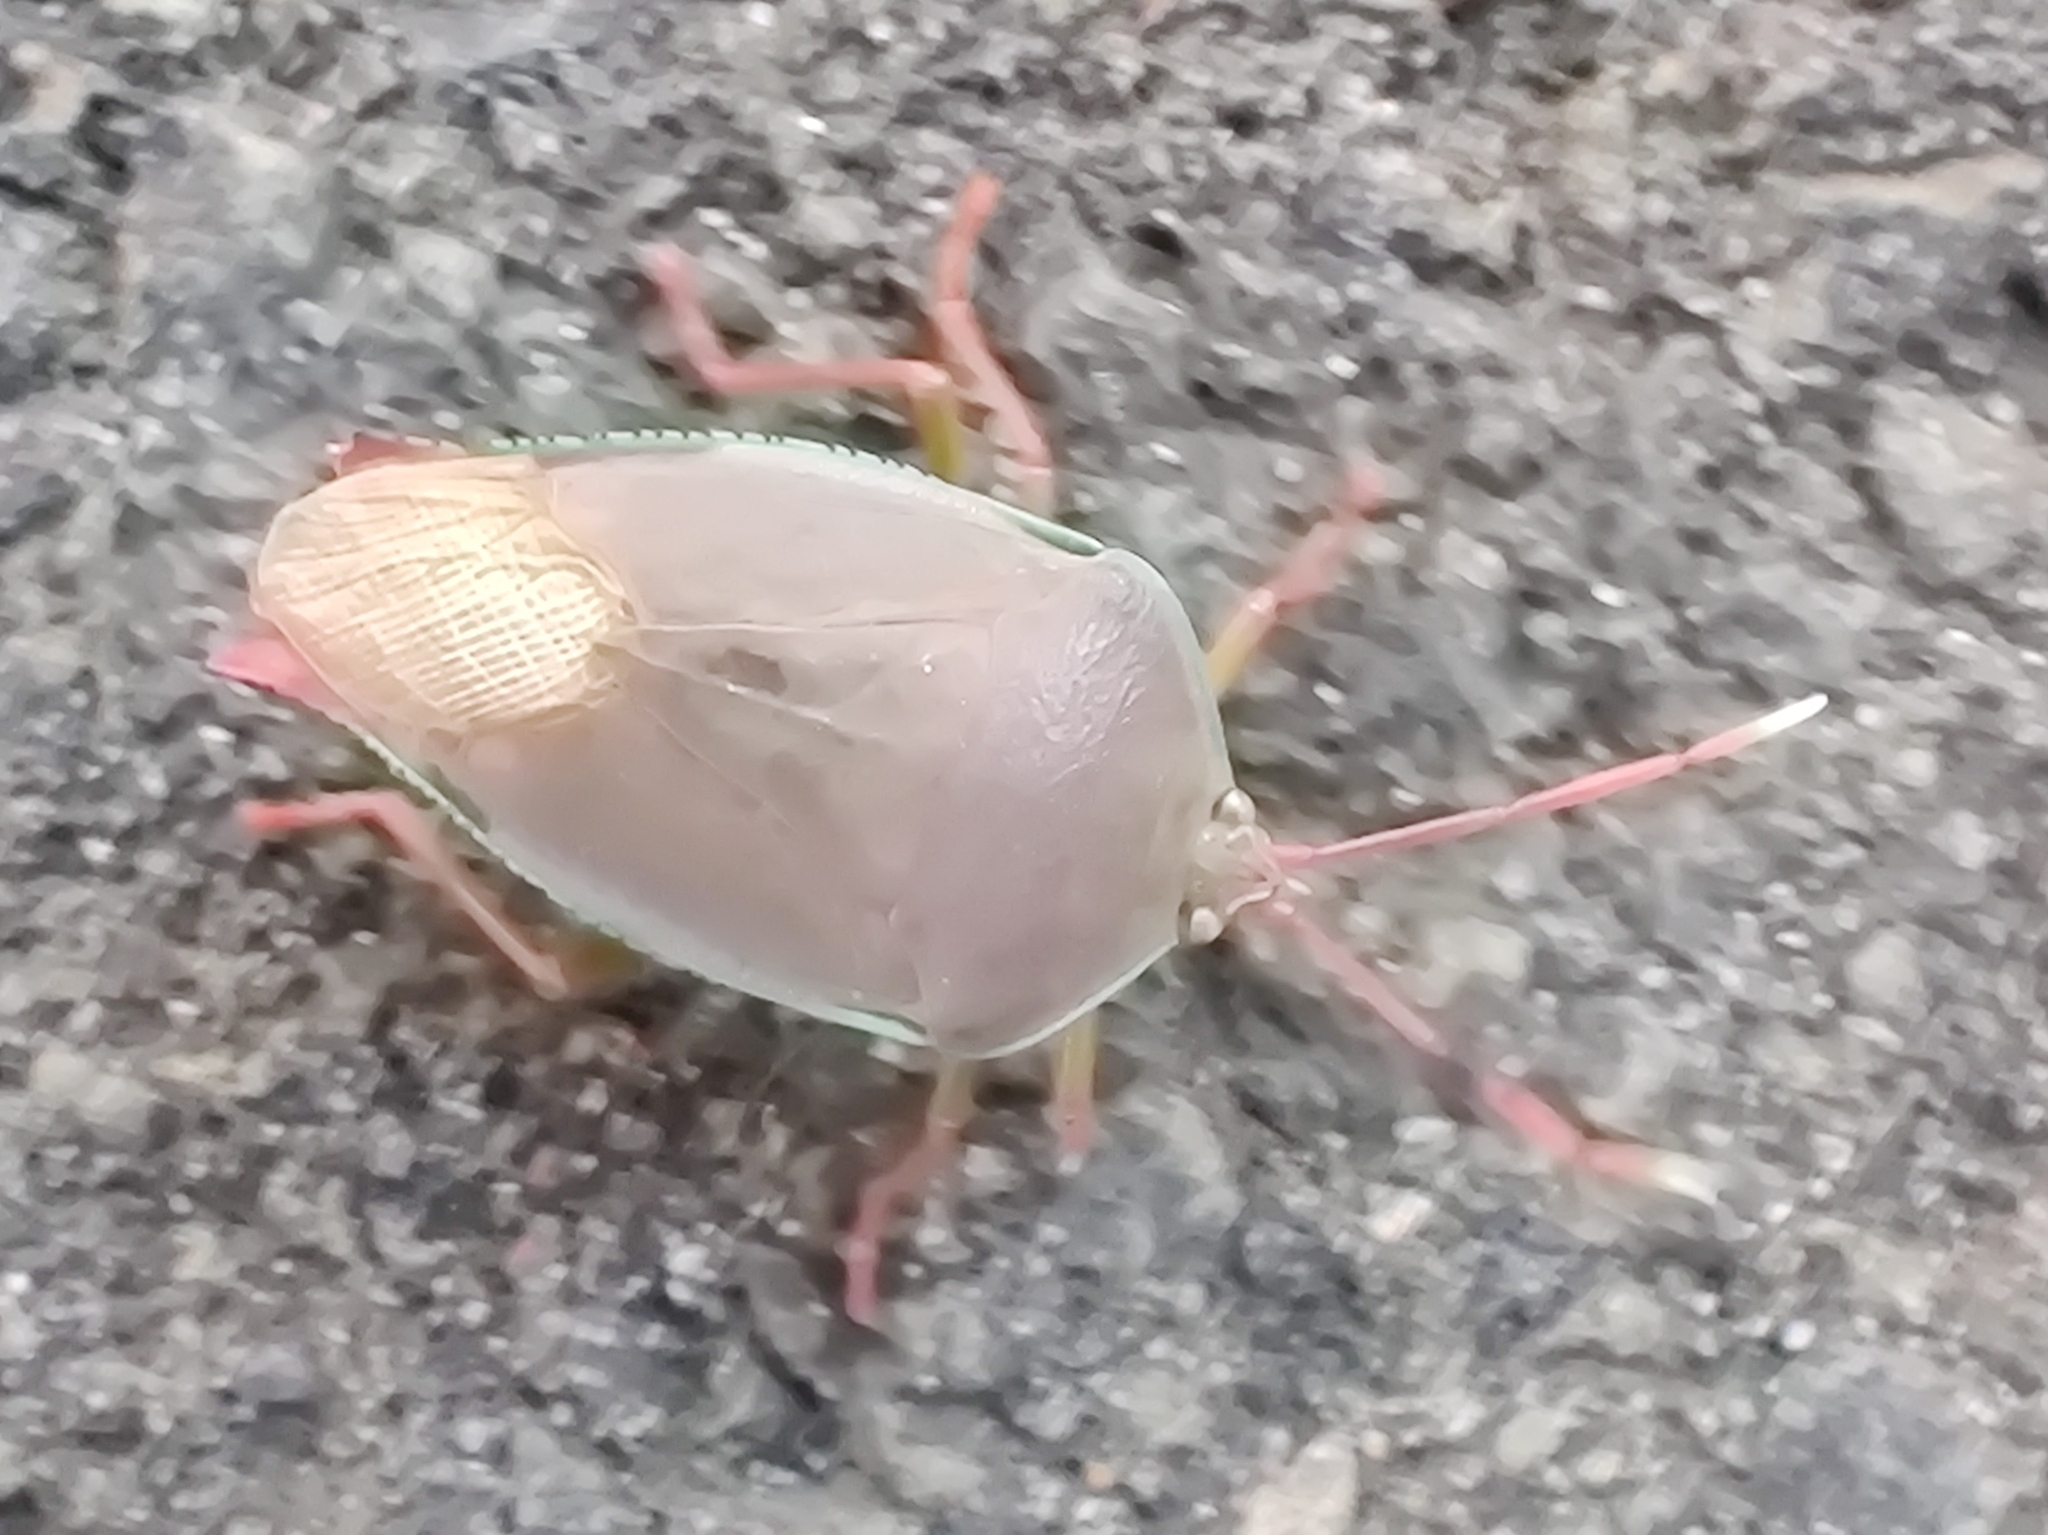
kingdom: Animalia
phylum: Arthropoda
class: Insecta
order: Hemiptera
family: Tessaratomidae
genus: Lyramorpha
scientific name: Lyramorpha rosea
